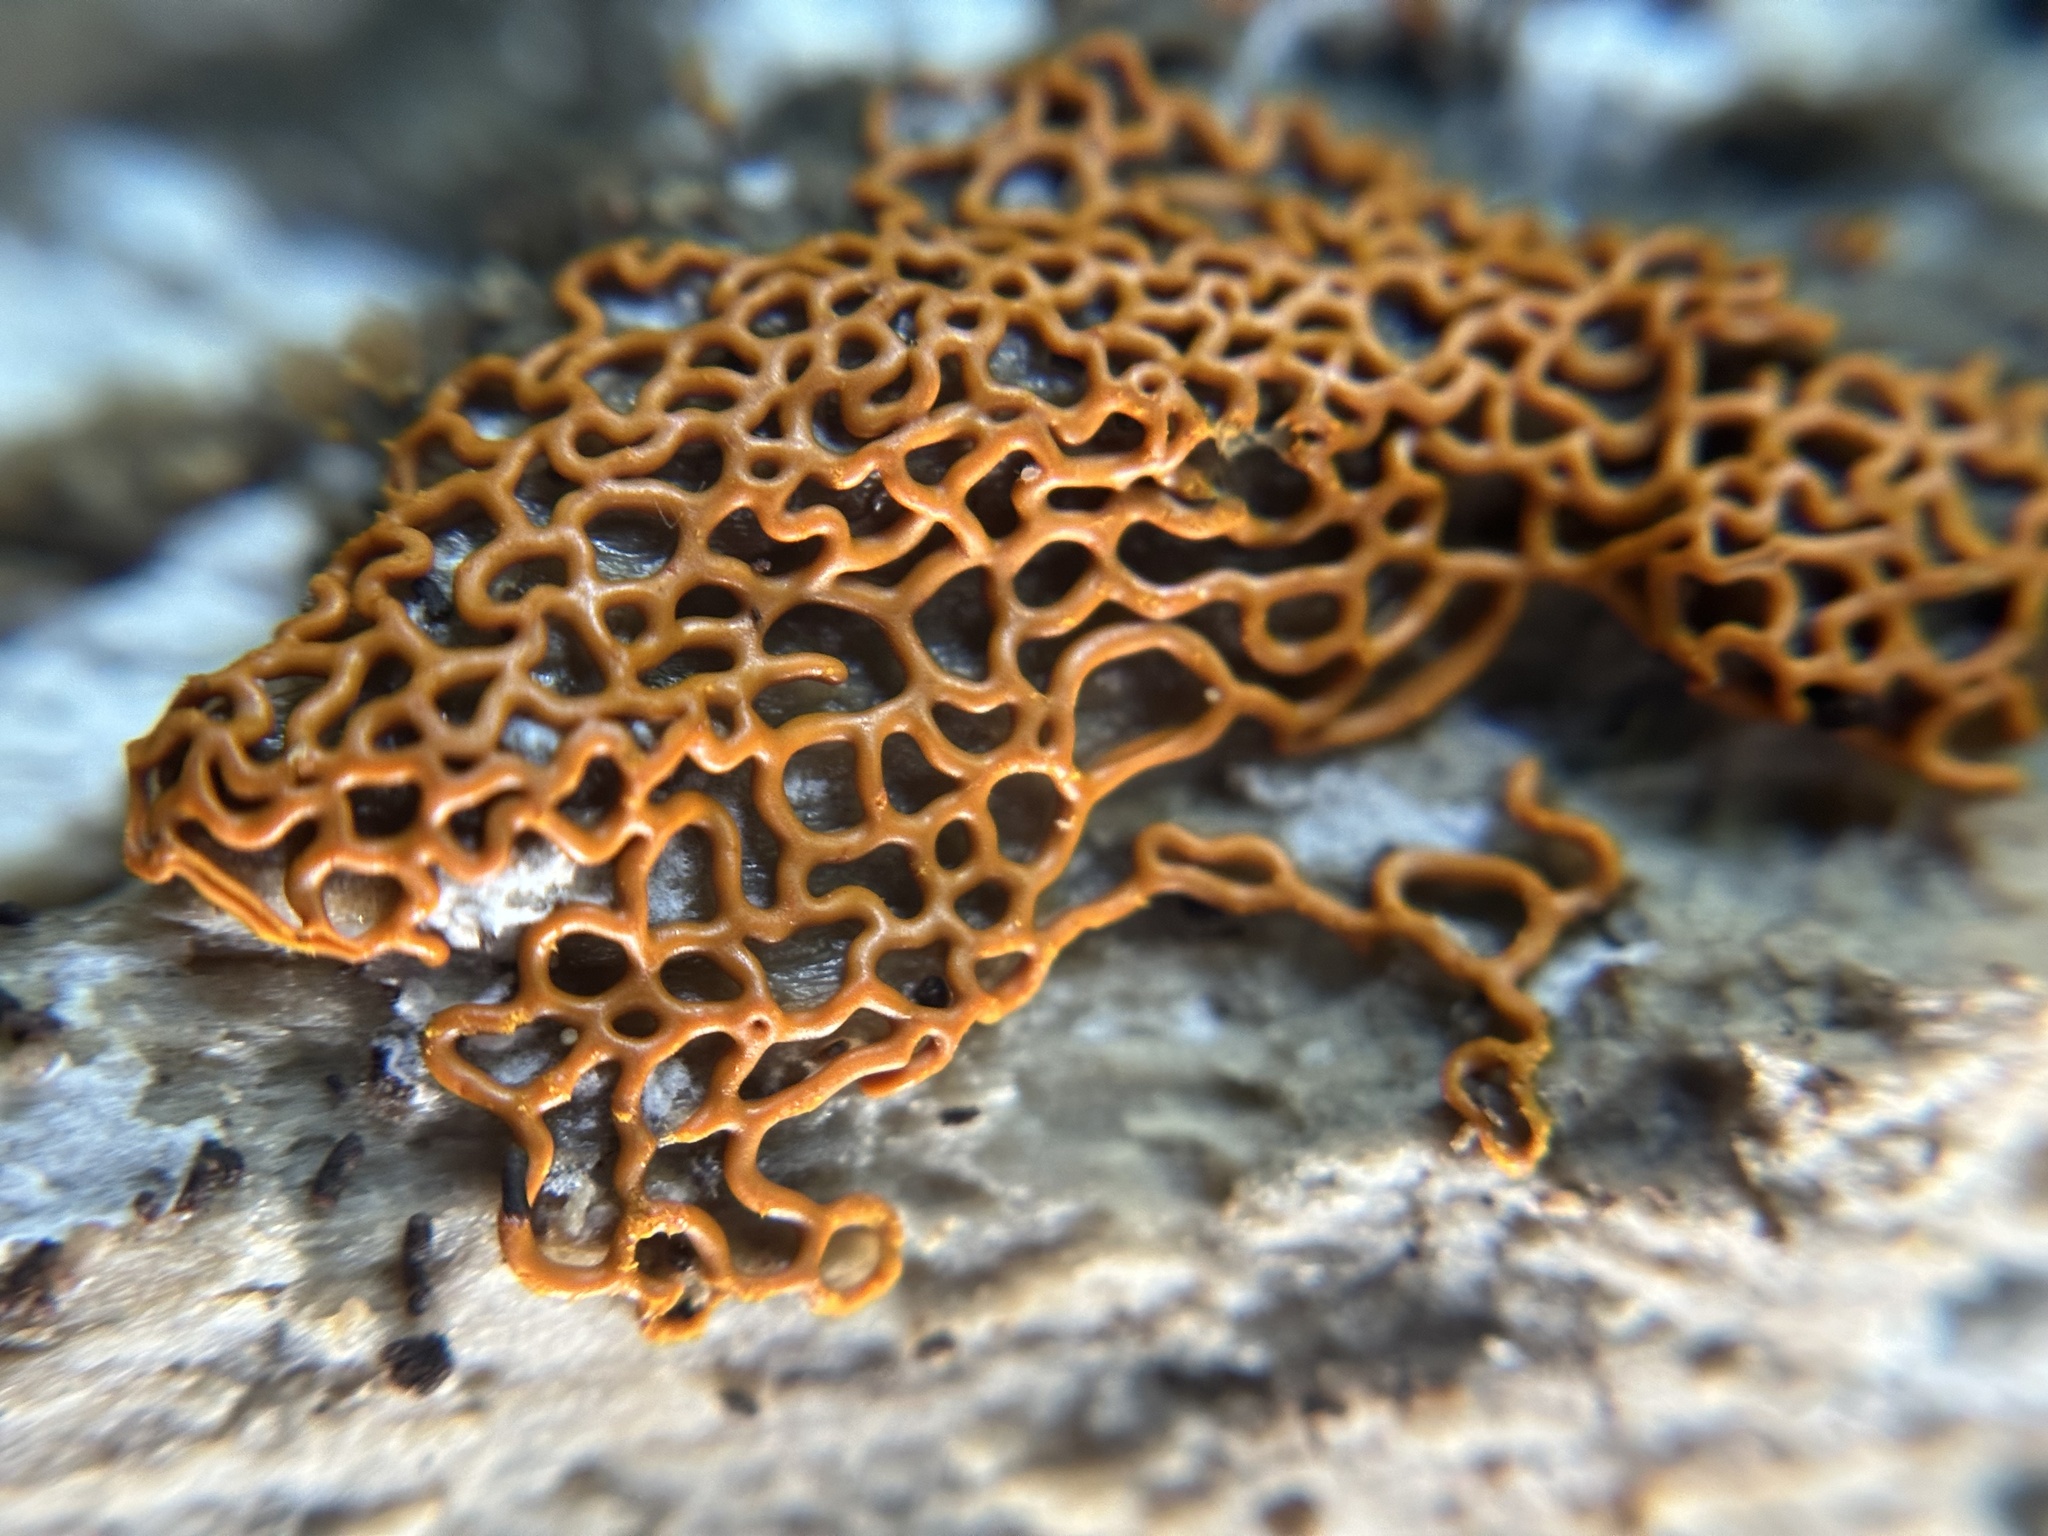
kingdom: Protozoa
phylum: Mycetozoa
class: Myxomycetes
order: Trichiales
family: Arcyriaceae
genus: Hemitrichia
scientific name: Hemitrichia serpula
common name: Pretzel slime mold
